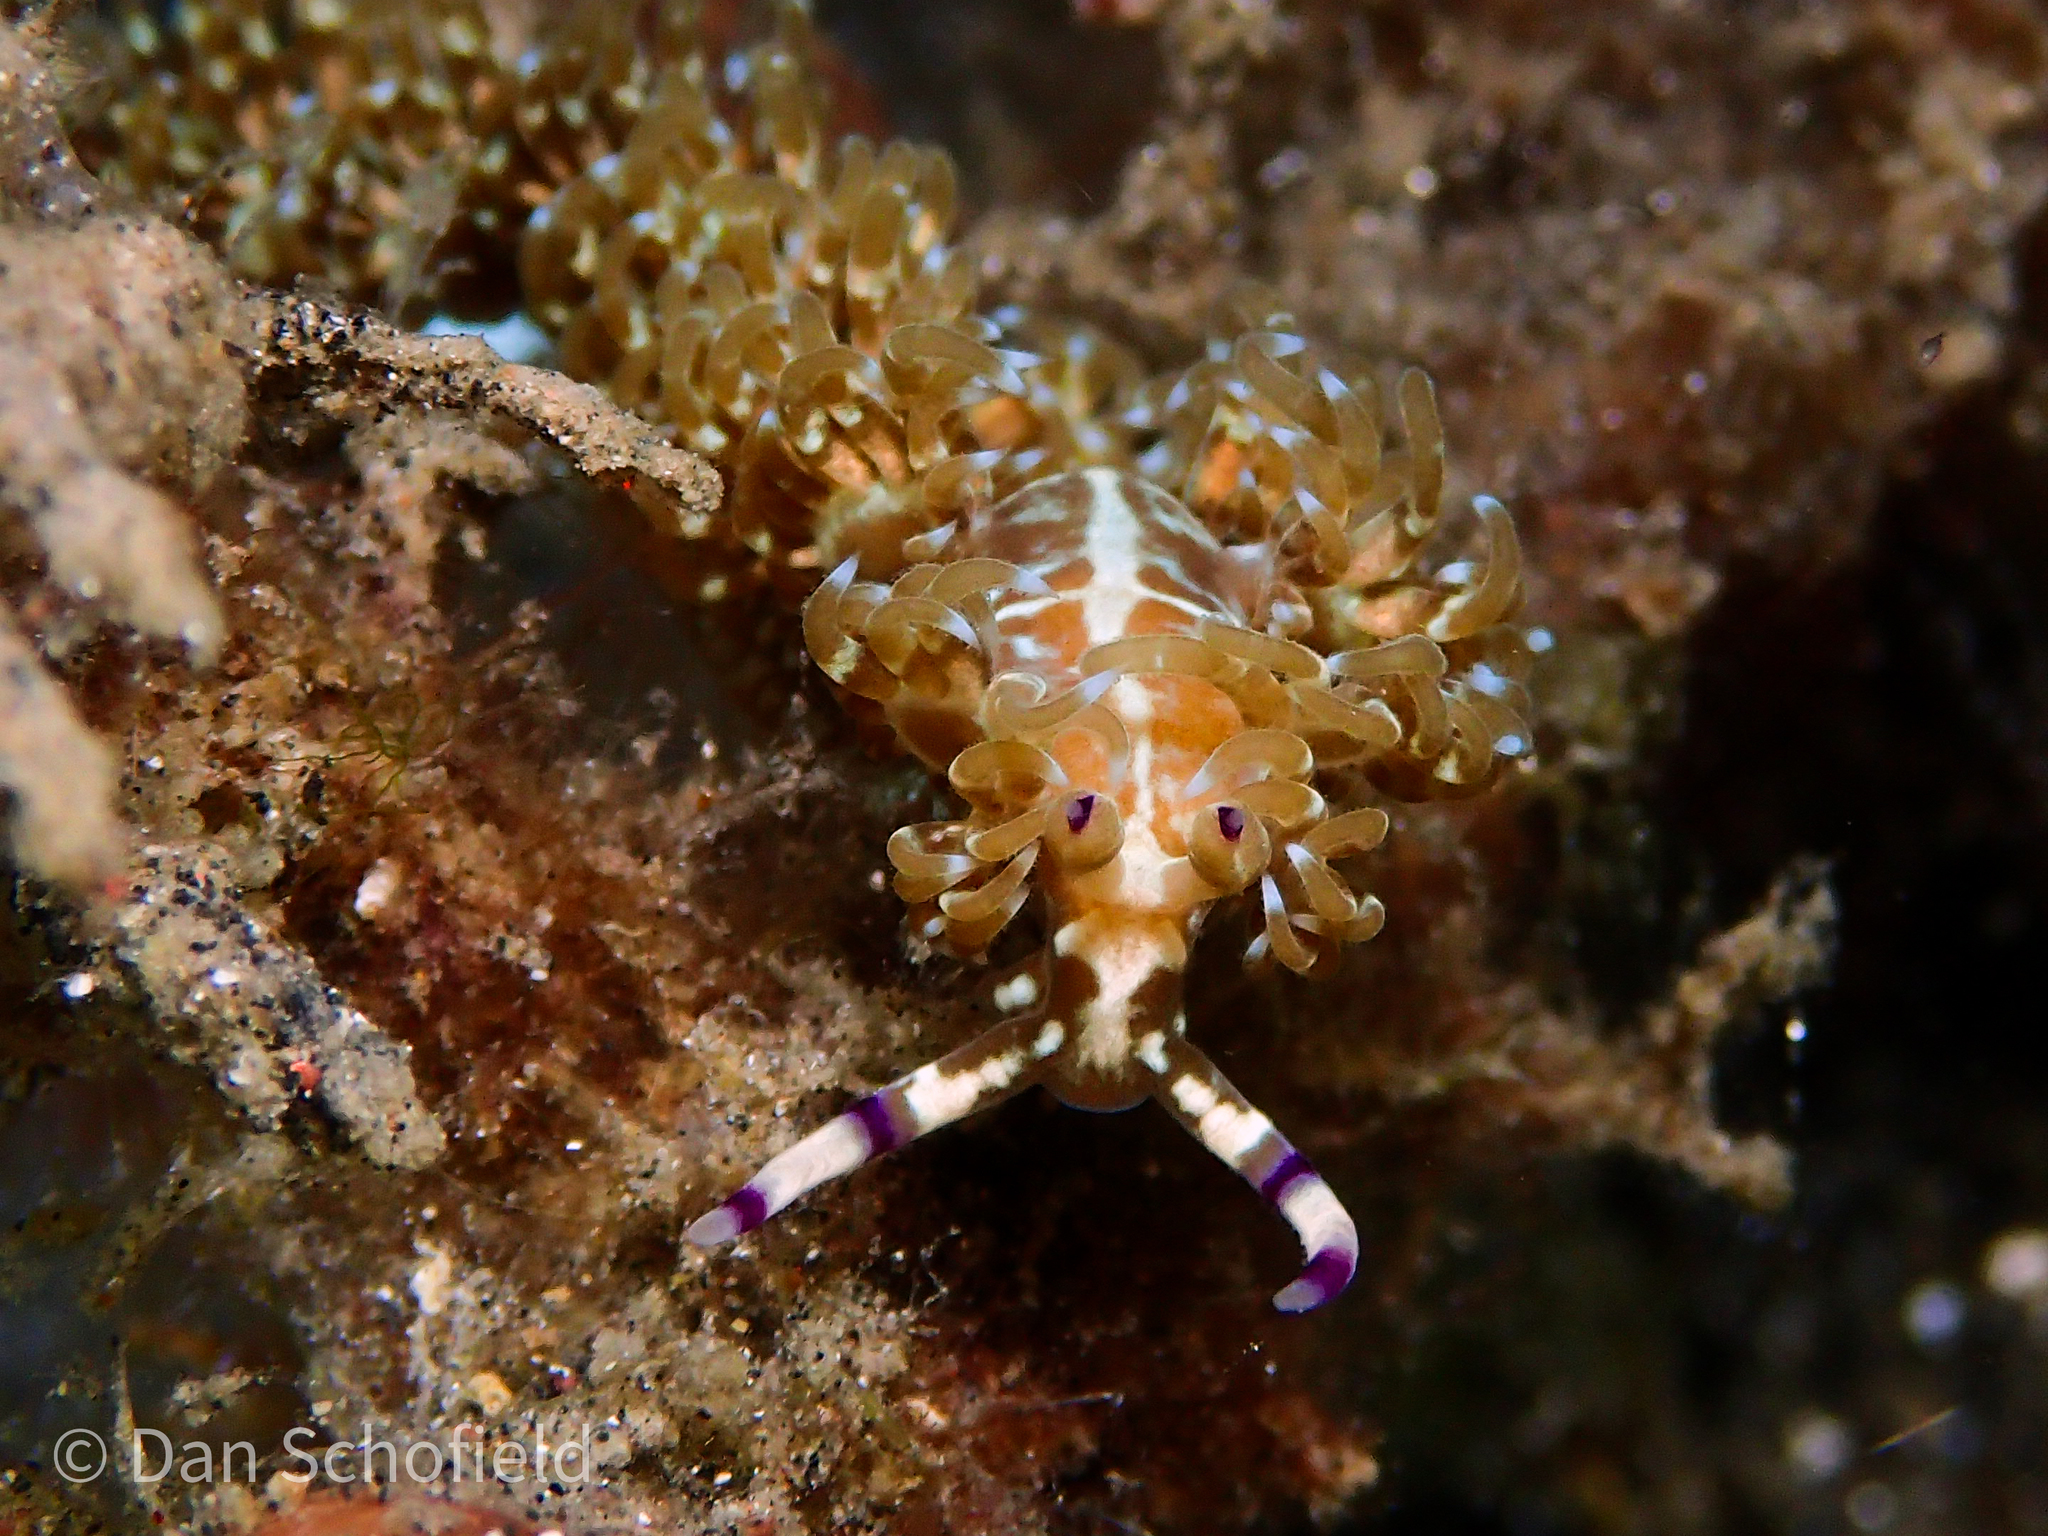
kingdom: Animalia
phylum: Mollusca
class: Gastropoda
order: Nudibranchia
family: Facelinidae
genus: Pteraeolidia
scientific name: Pteraeolidia semperi
